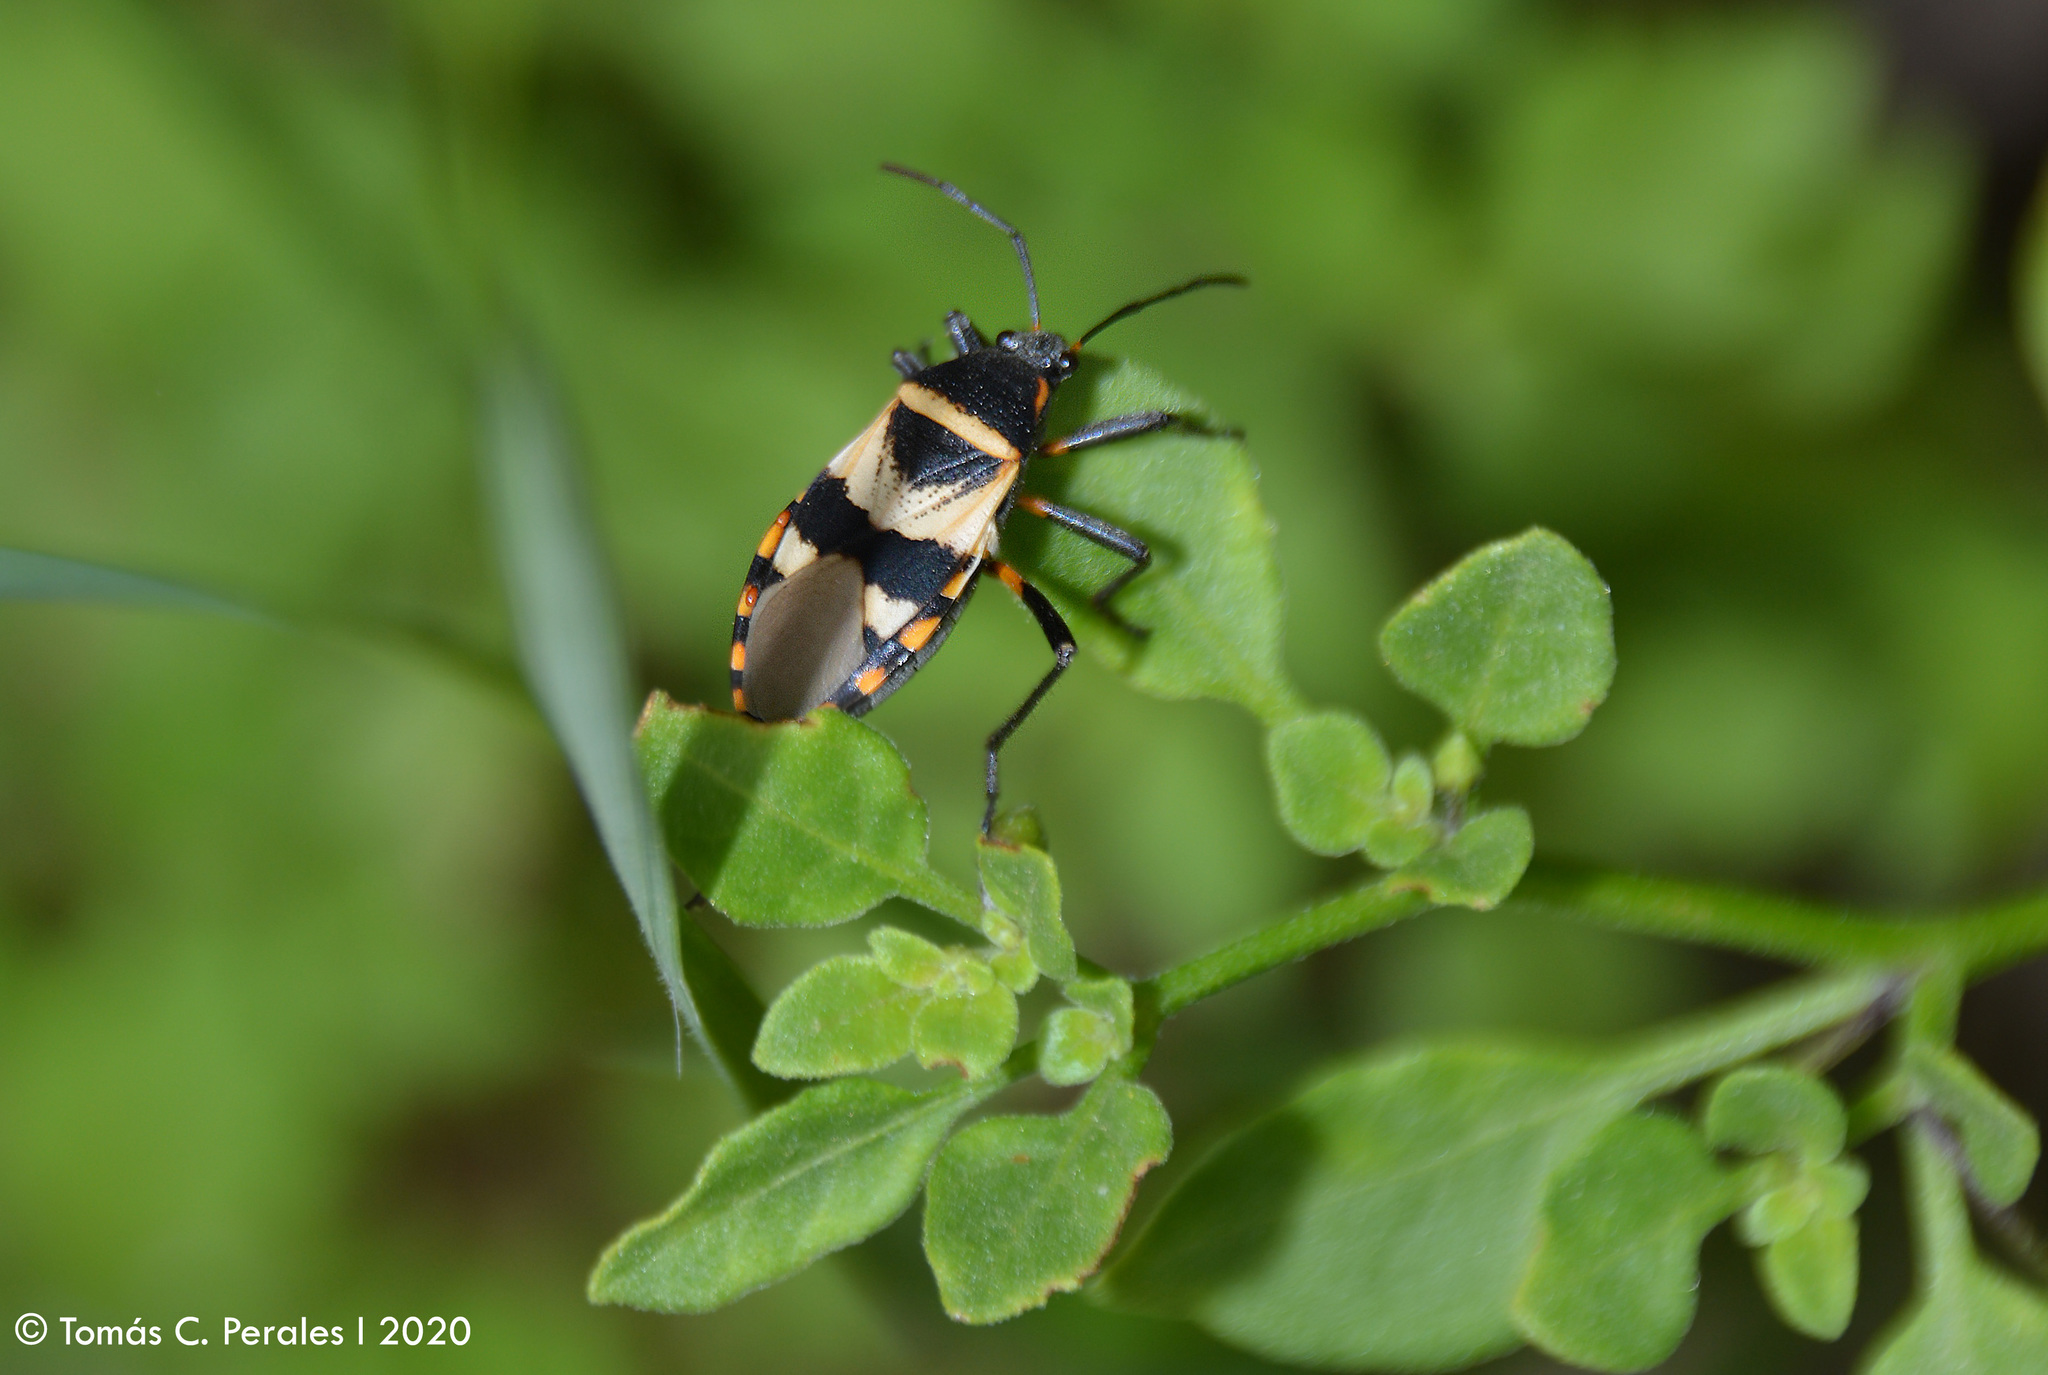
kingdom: Animalia
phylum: Arthropoda
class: Insecta
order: Hemiptera
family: Largidae
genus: Largus
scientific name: Largus fasciatus
